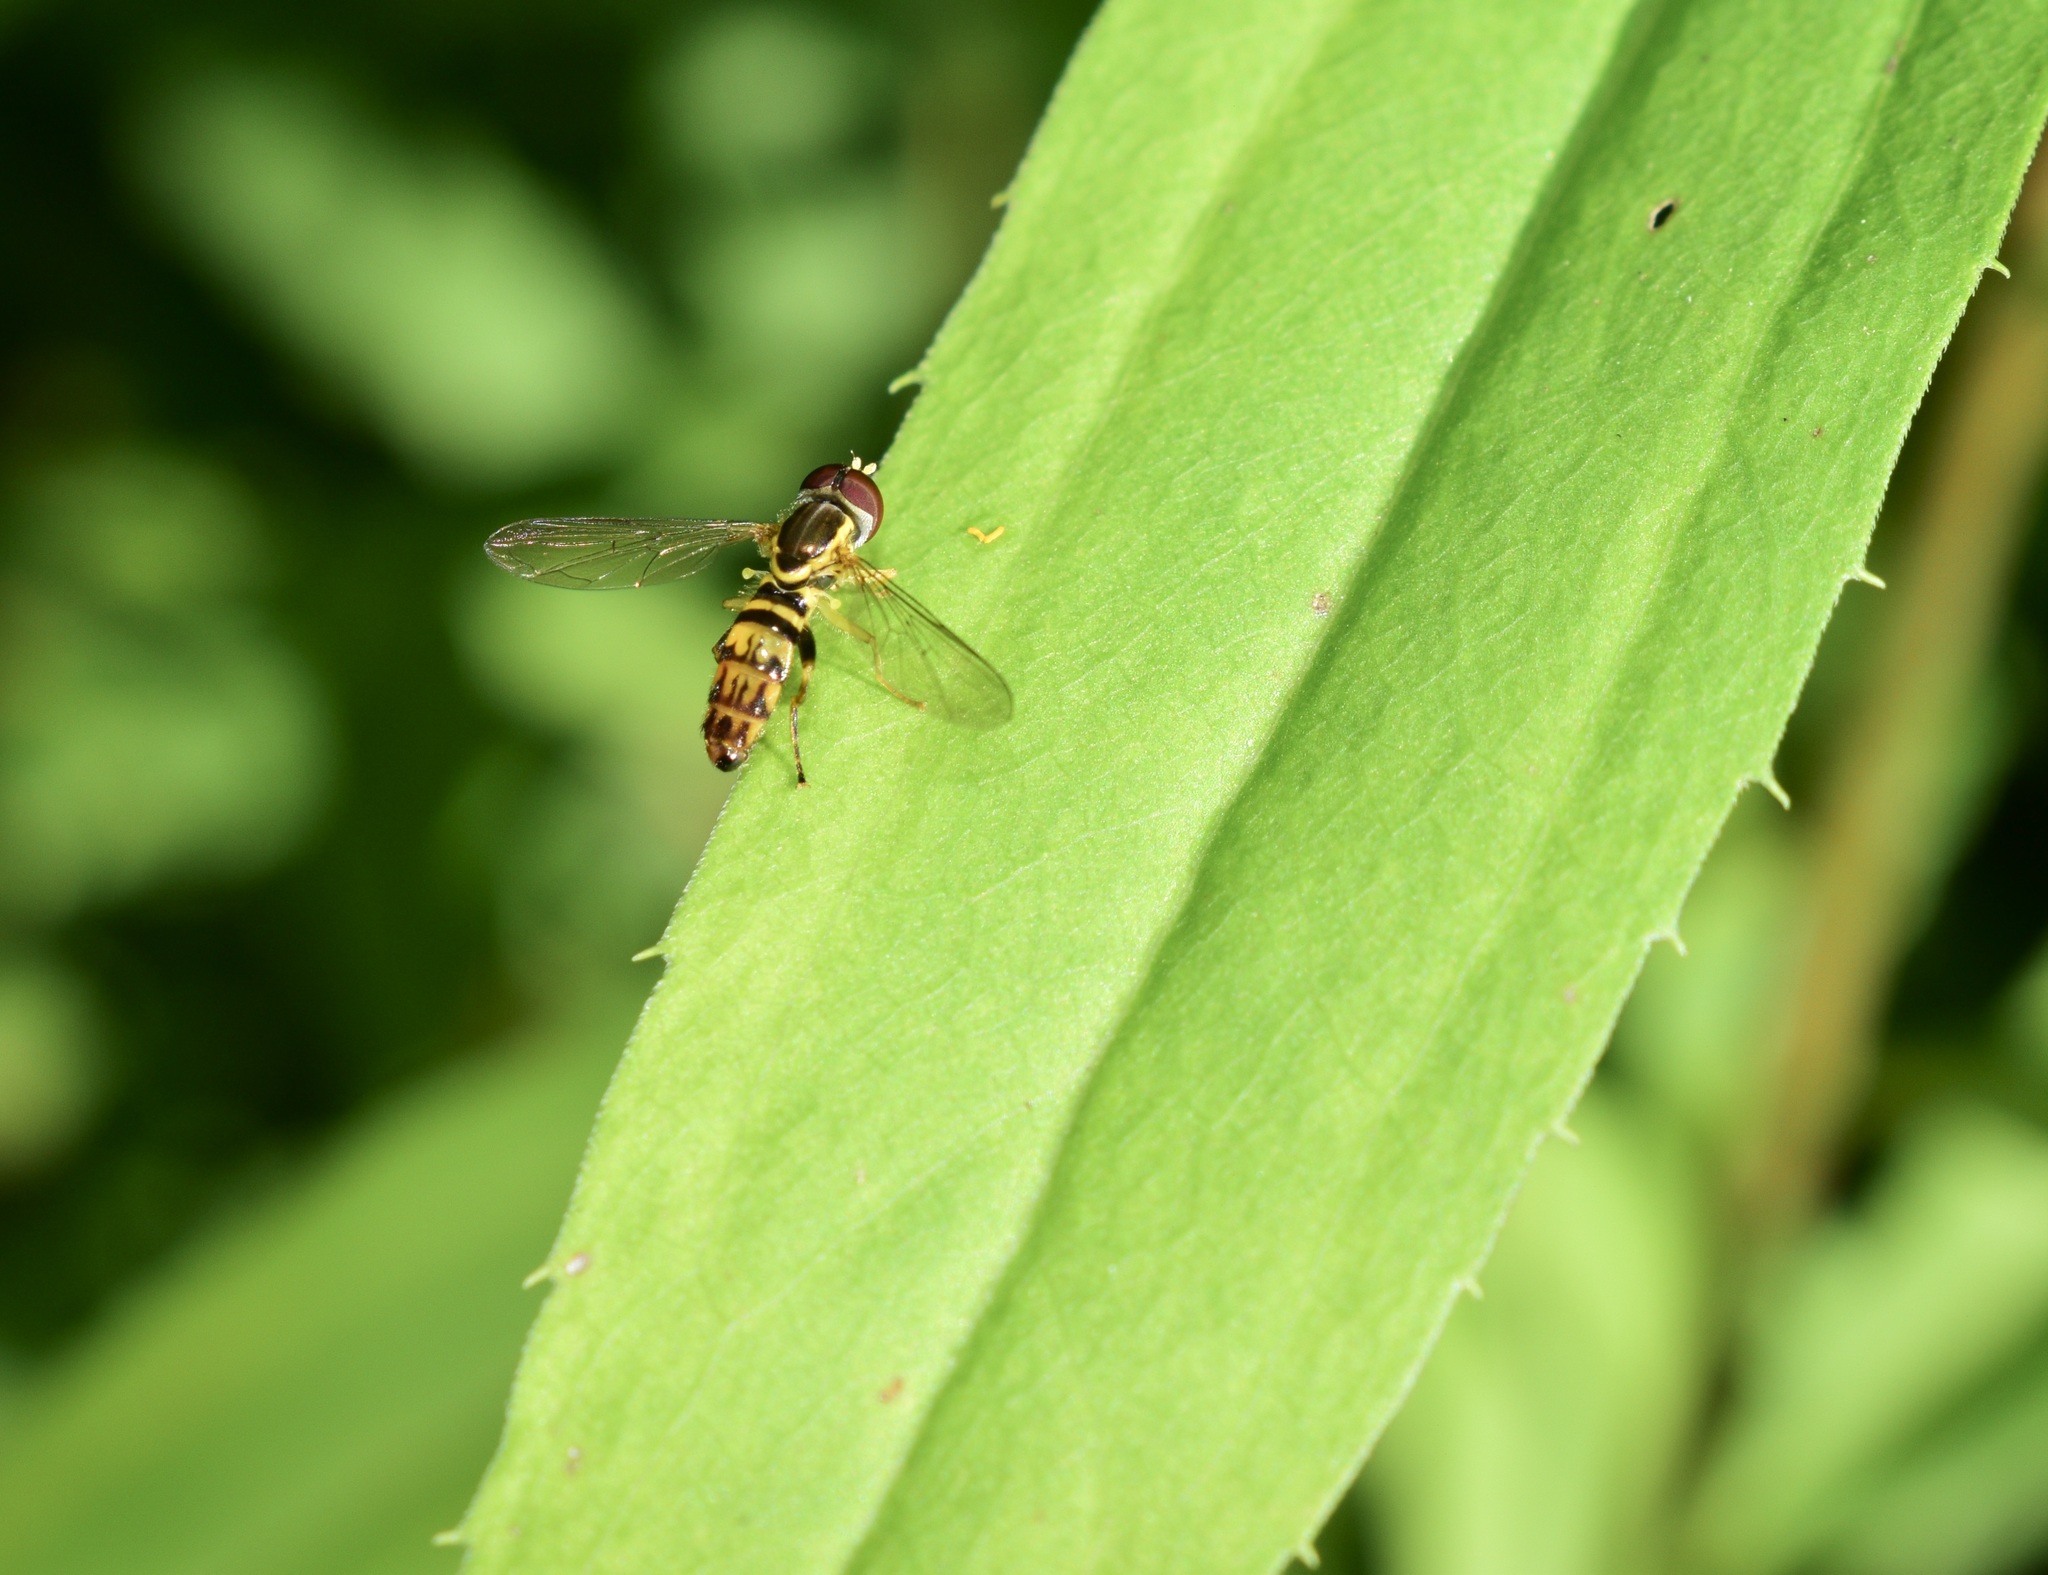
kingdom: Animalia
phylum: Arthropoda
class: Insecta
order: Diptera
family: Syrphidae
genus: Toxomerus
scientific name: Toxomerus geminatus
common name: Eastern calligrapher
